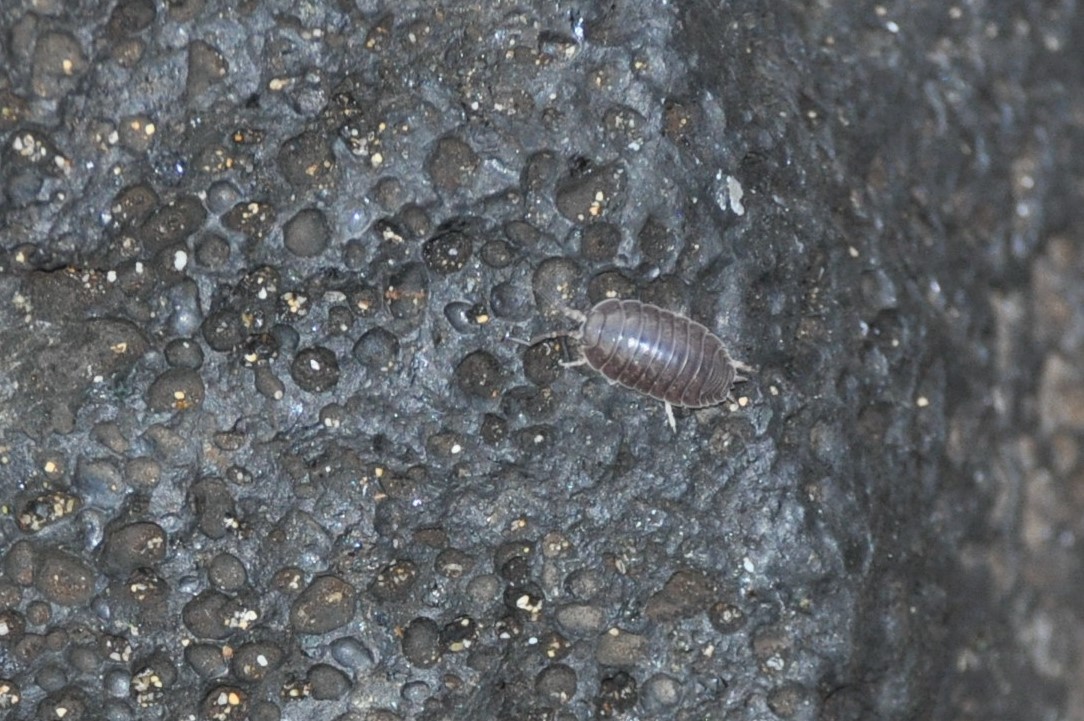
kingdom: Animalia
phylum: Arthropoda
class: Malacostraca
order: Isopoda
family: Porcellionidae
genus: Porcellio
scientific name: Porcellio laevis
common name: Swift woodlouse
